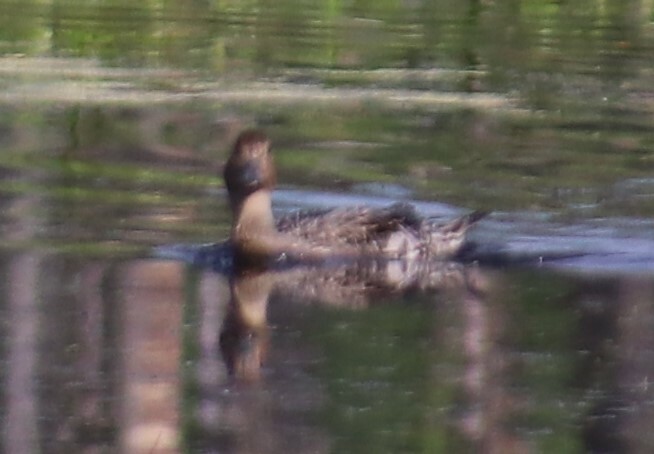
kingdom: Animalia
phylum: Chordata
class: Aves
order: Anseriformes
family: Anatidae
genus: Anas
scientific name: Anas acuta
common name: Northern pintail
